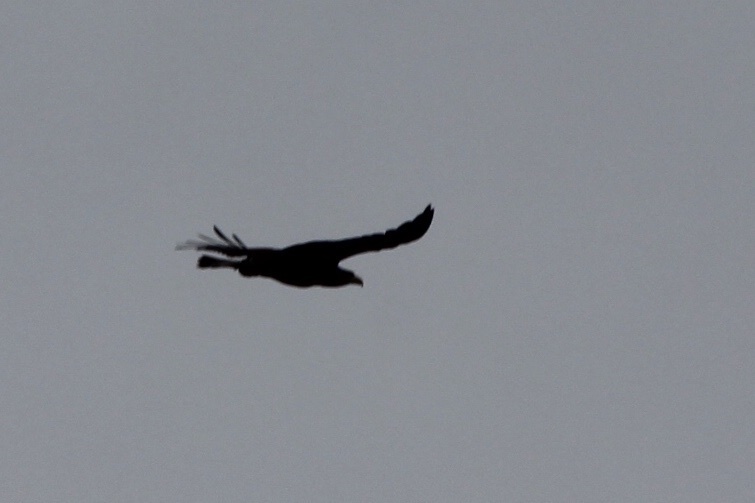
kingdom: Animalia
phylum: Chordata
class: Aves
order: Accipitriformes
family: Accipitridae
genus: Haliaeetus
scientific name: Haliaeetus leucocephalus
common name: Bald eagle
